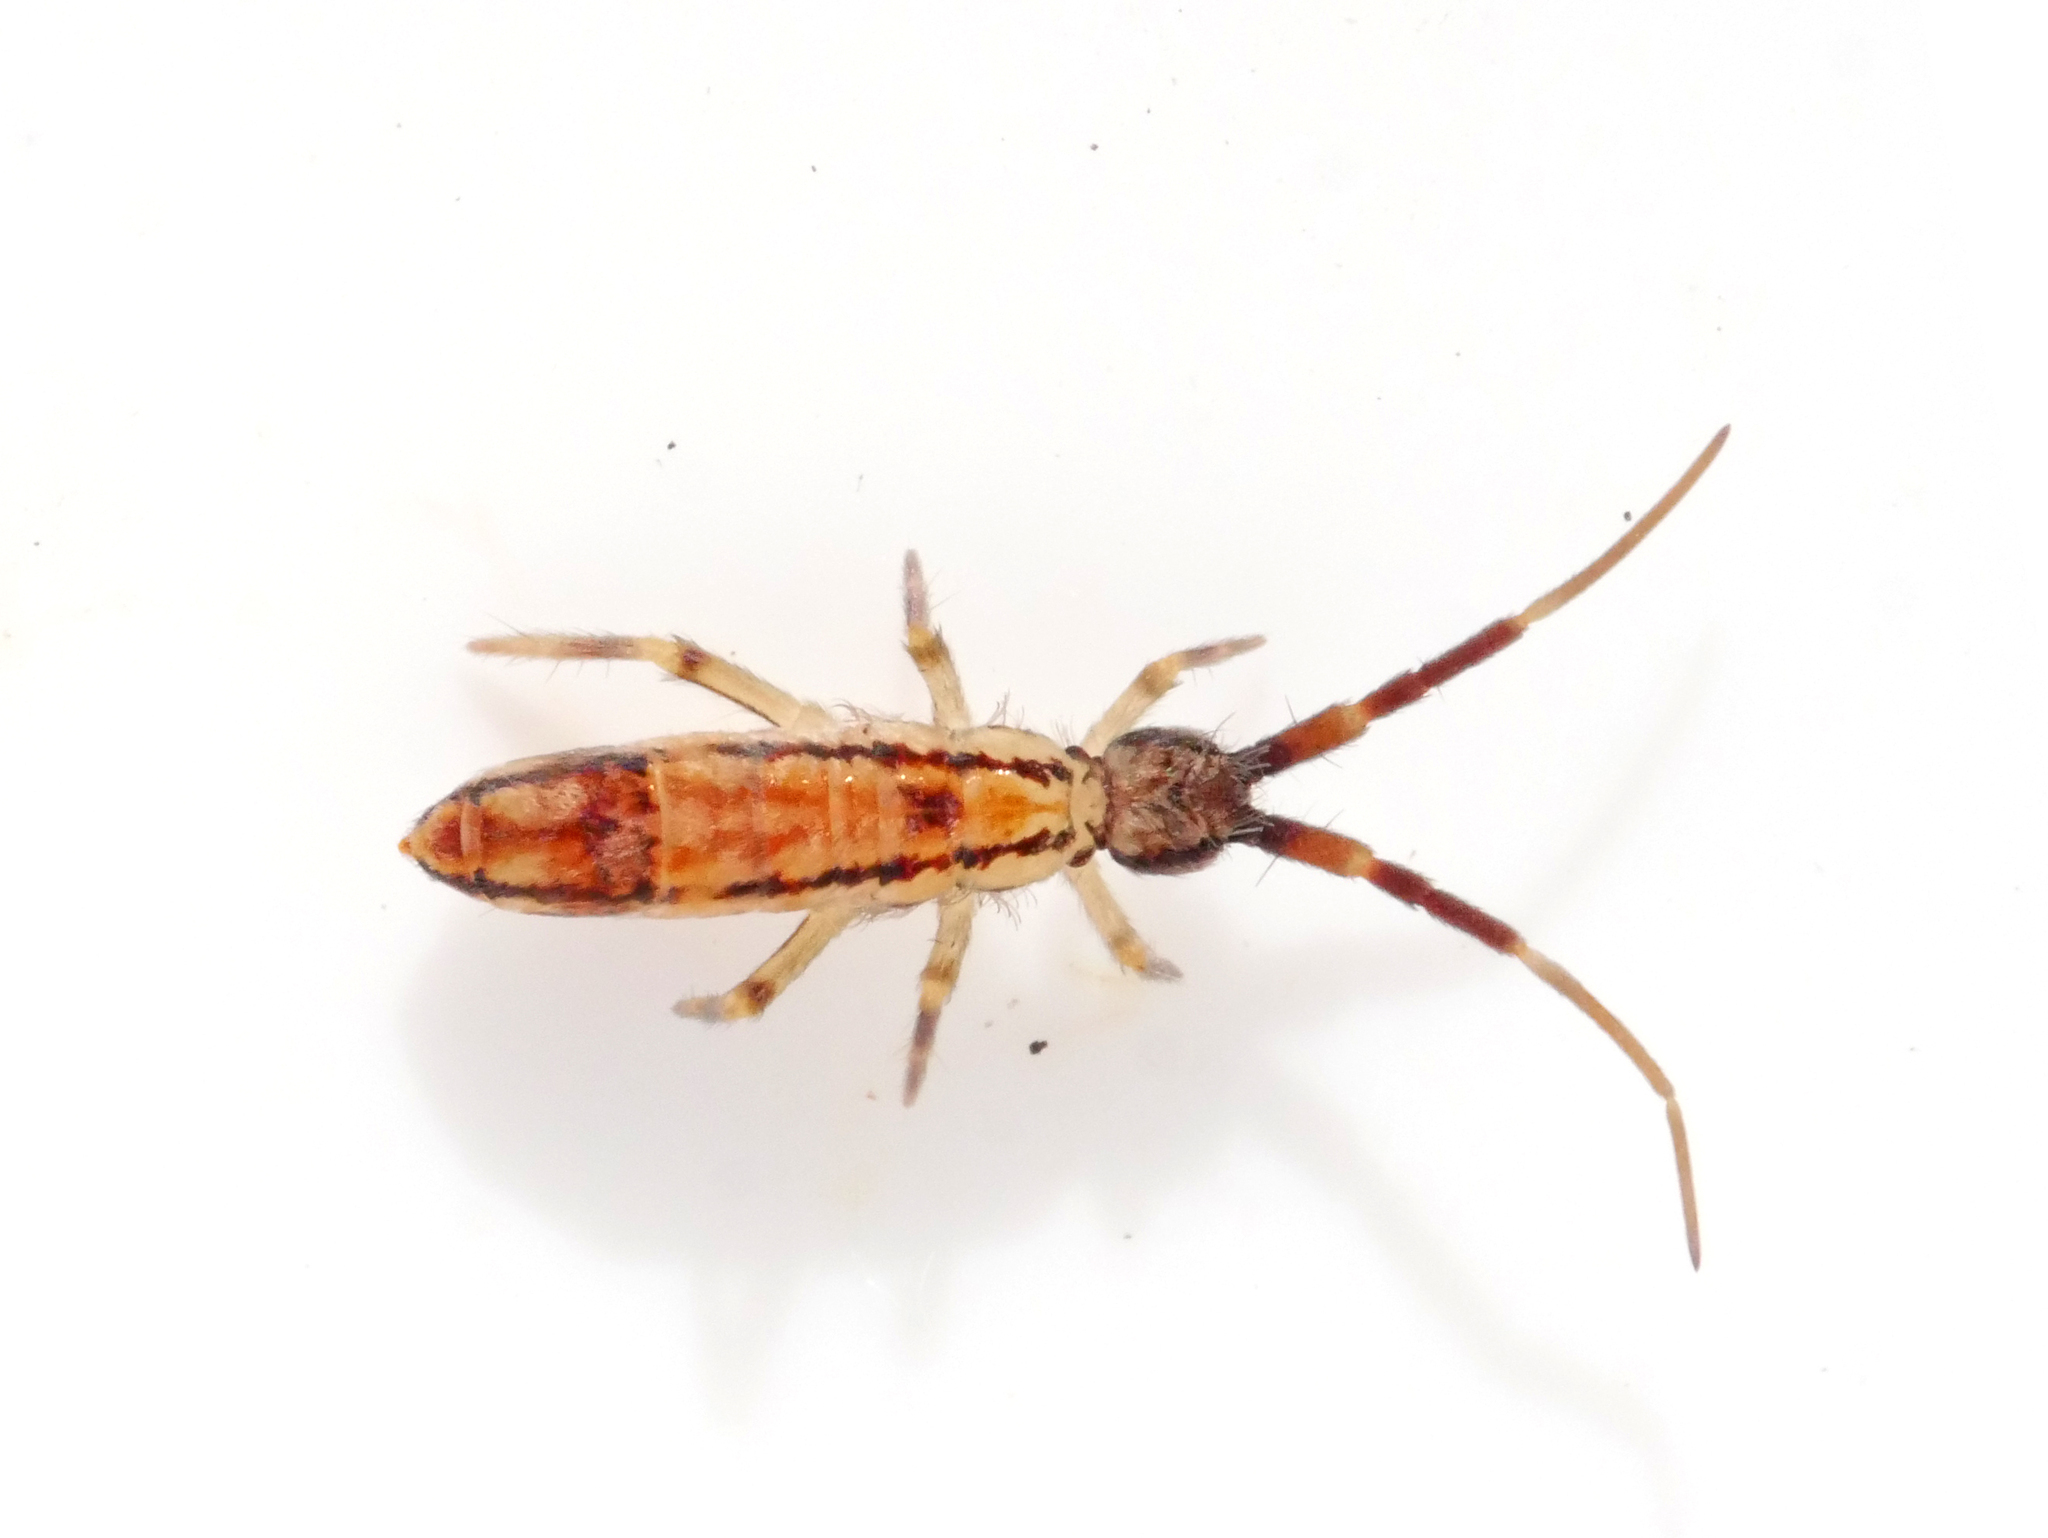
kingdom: Animalia
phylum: Arthropoda
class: Collembola
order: Entomobryomorpha
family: Entomobryidae
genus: Entomobrya
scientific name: Entomobrya nivalis
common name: Cosmopolitan springtail
